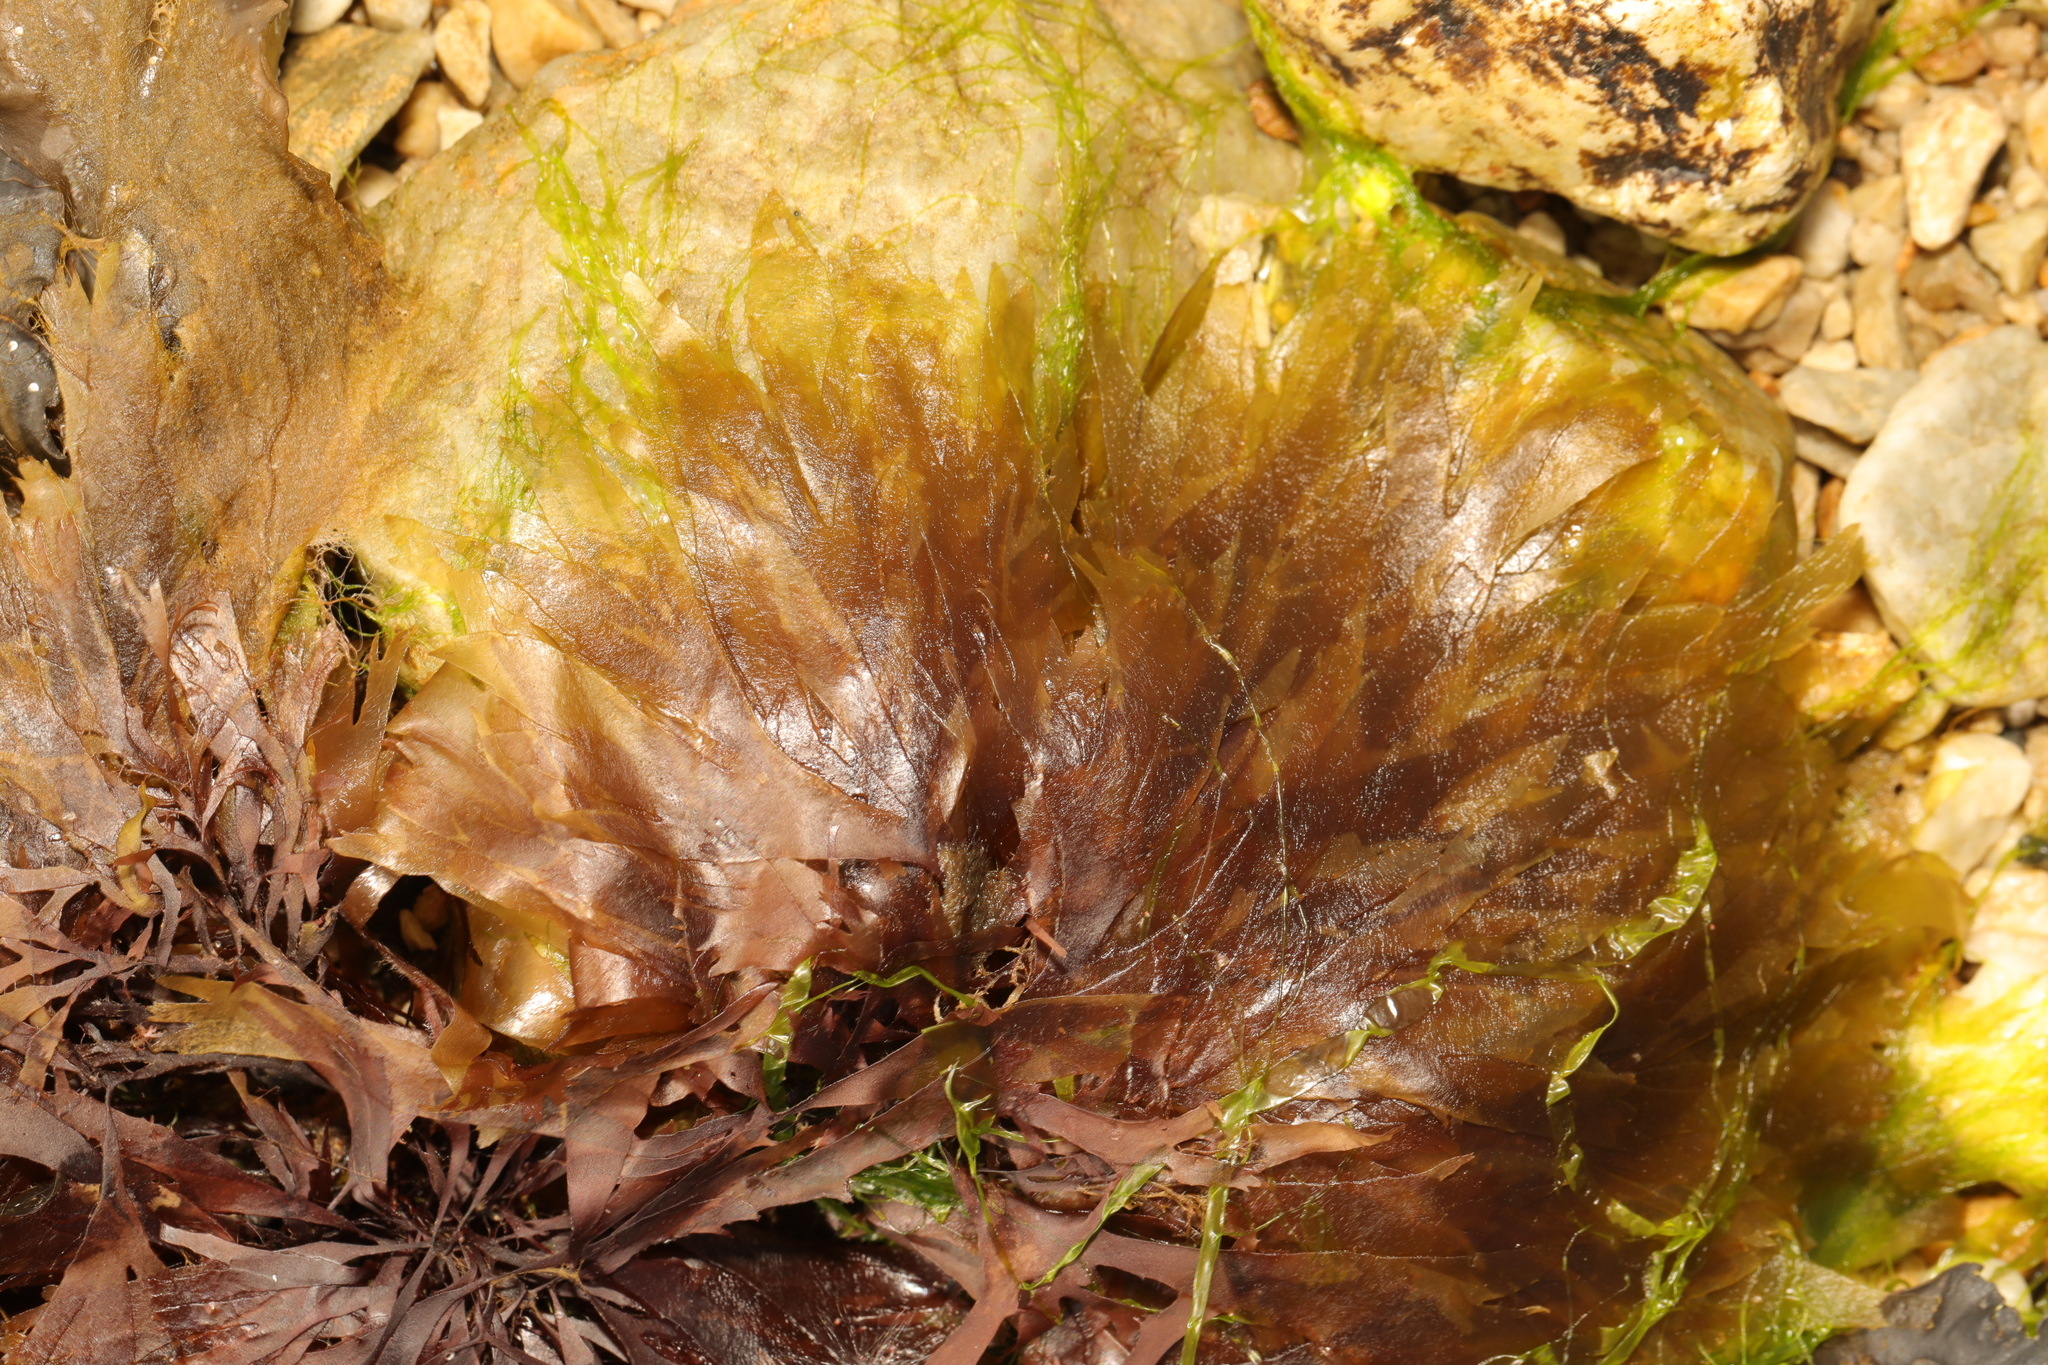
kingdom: Plantae
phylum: Rhodophyta
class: Florideophyceae
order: Palmariales
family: Palmariaceae
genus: Palmaria
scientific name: Palmaria palmata
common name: Dulse
